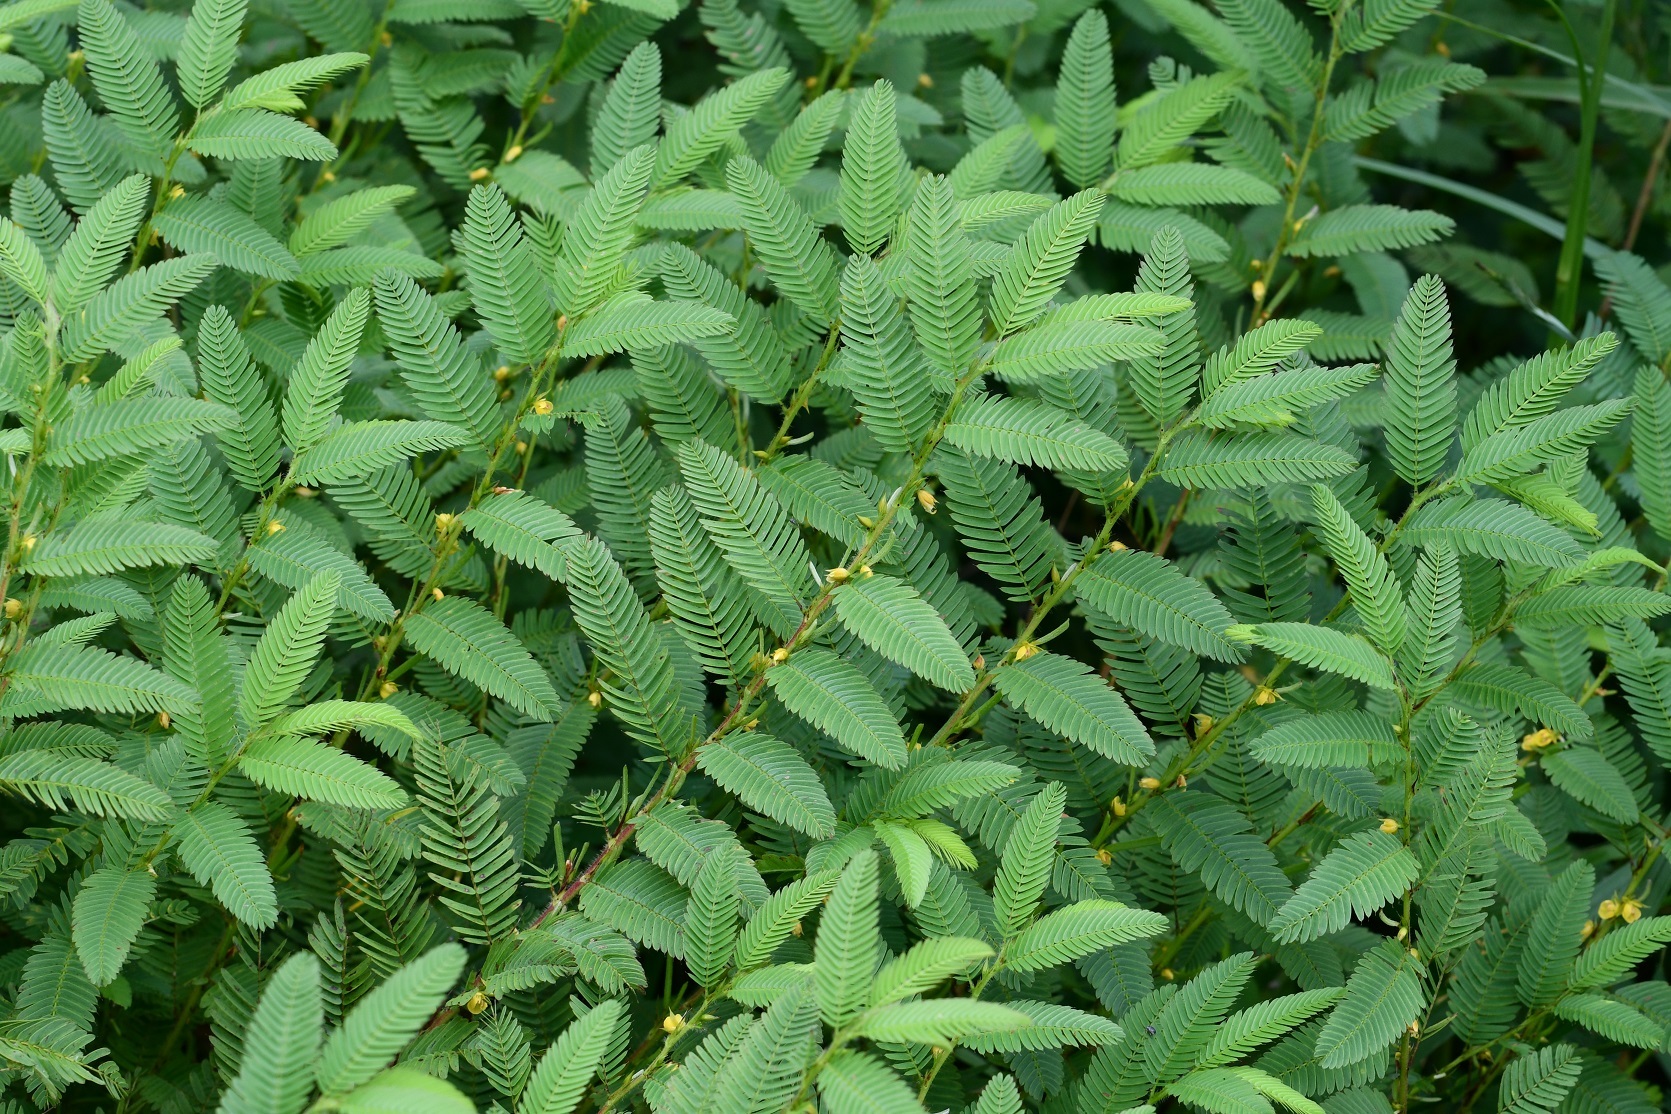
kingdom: Plantae
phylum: Tracheophyta
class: Magnoliopsida
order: Fabales
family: Fabaceae
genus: Chamaecrista
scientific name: Chamaecrista nictitans
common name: Sensitive cassia
